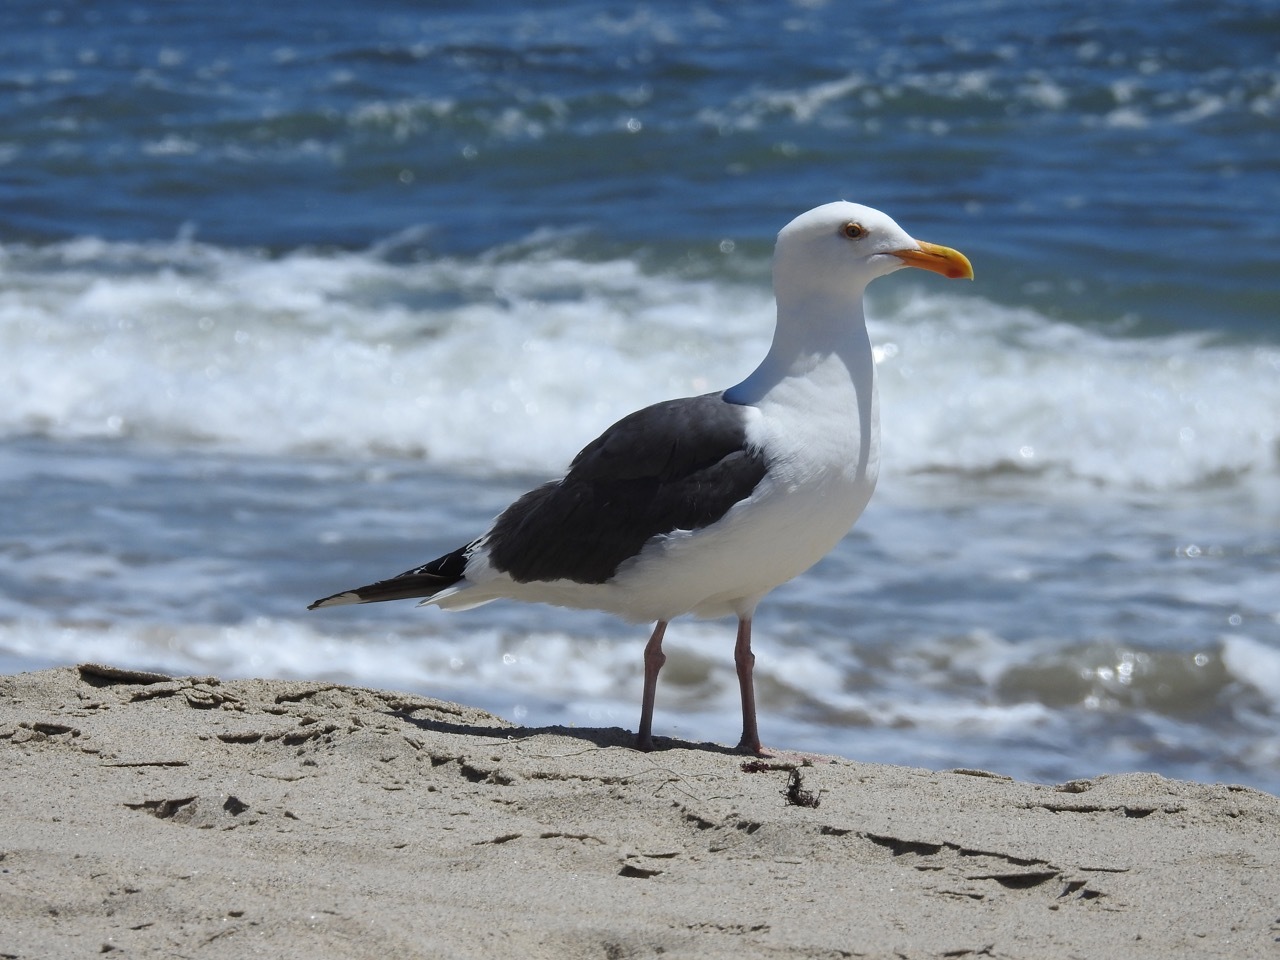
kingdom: Animalia
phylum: Chordata
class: Aves
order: Charadriiformes
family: Laridae
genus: Larus
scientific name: Larus occidentalis
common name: Western gull
